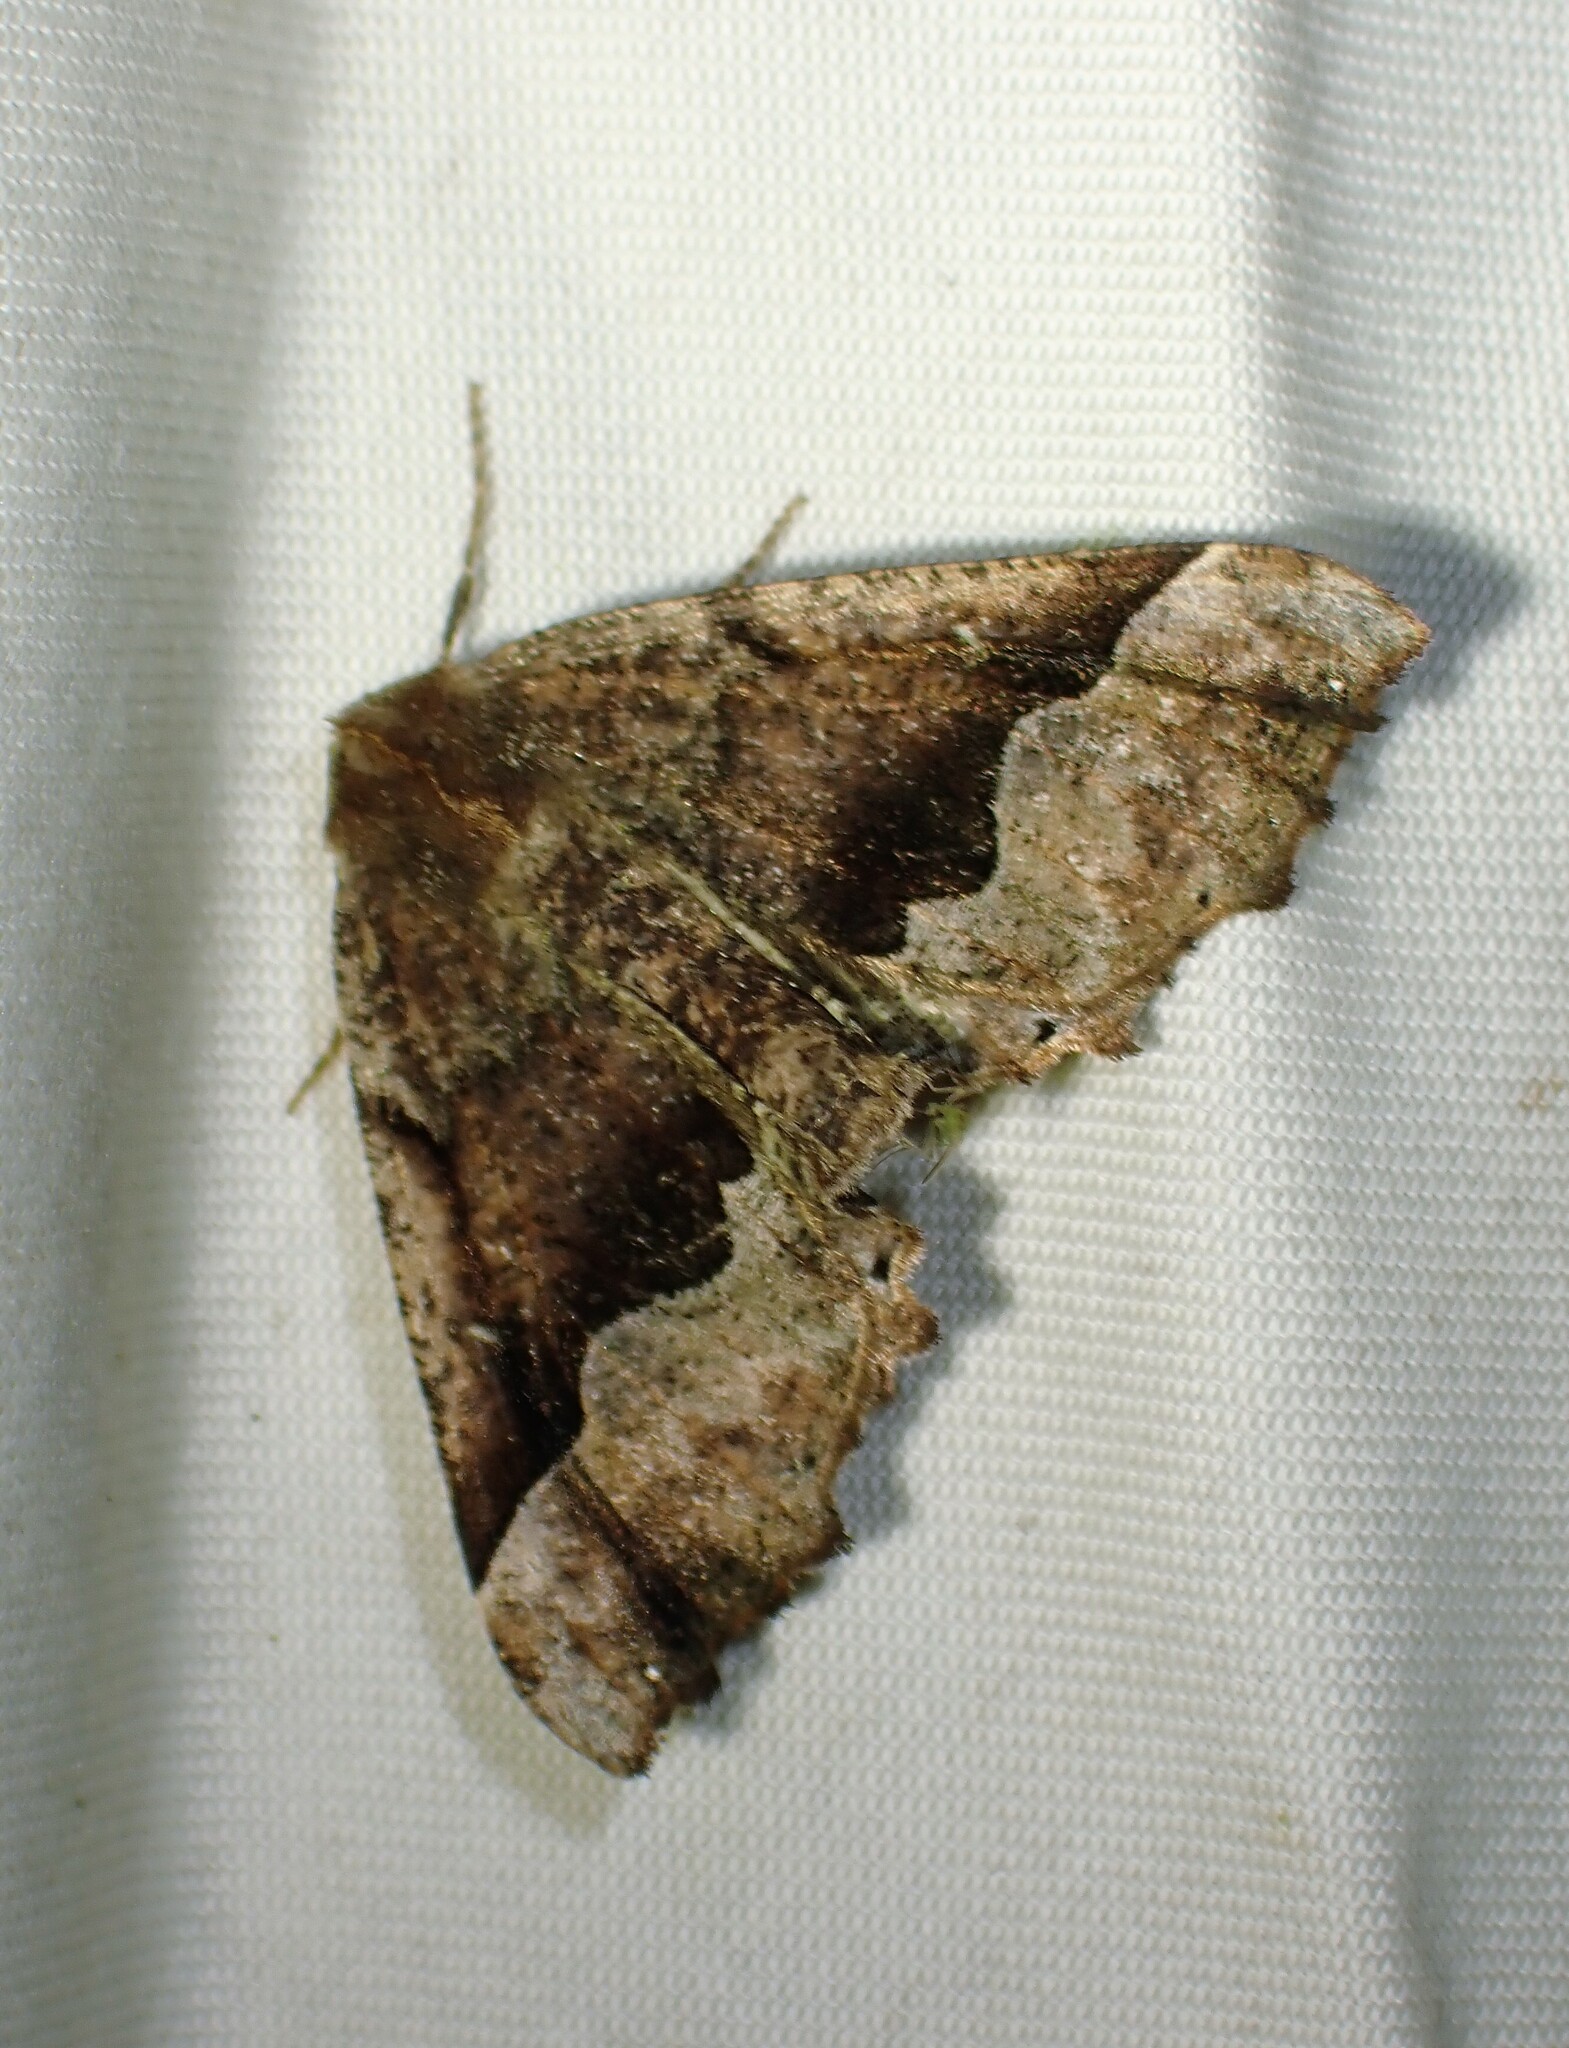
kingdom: Animalia
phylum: Arthropoda
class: Insecta
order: Lepidoptera
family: Geometridae
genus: Pero
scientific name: Pero morrisonaria
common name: Morrison's pero
